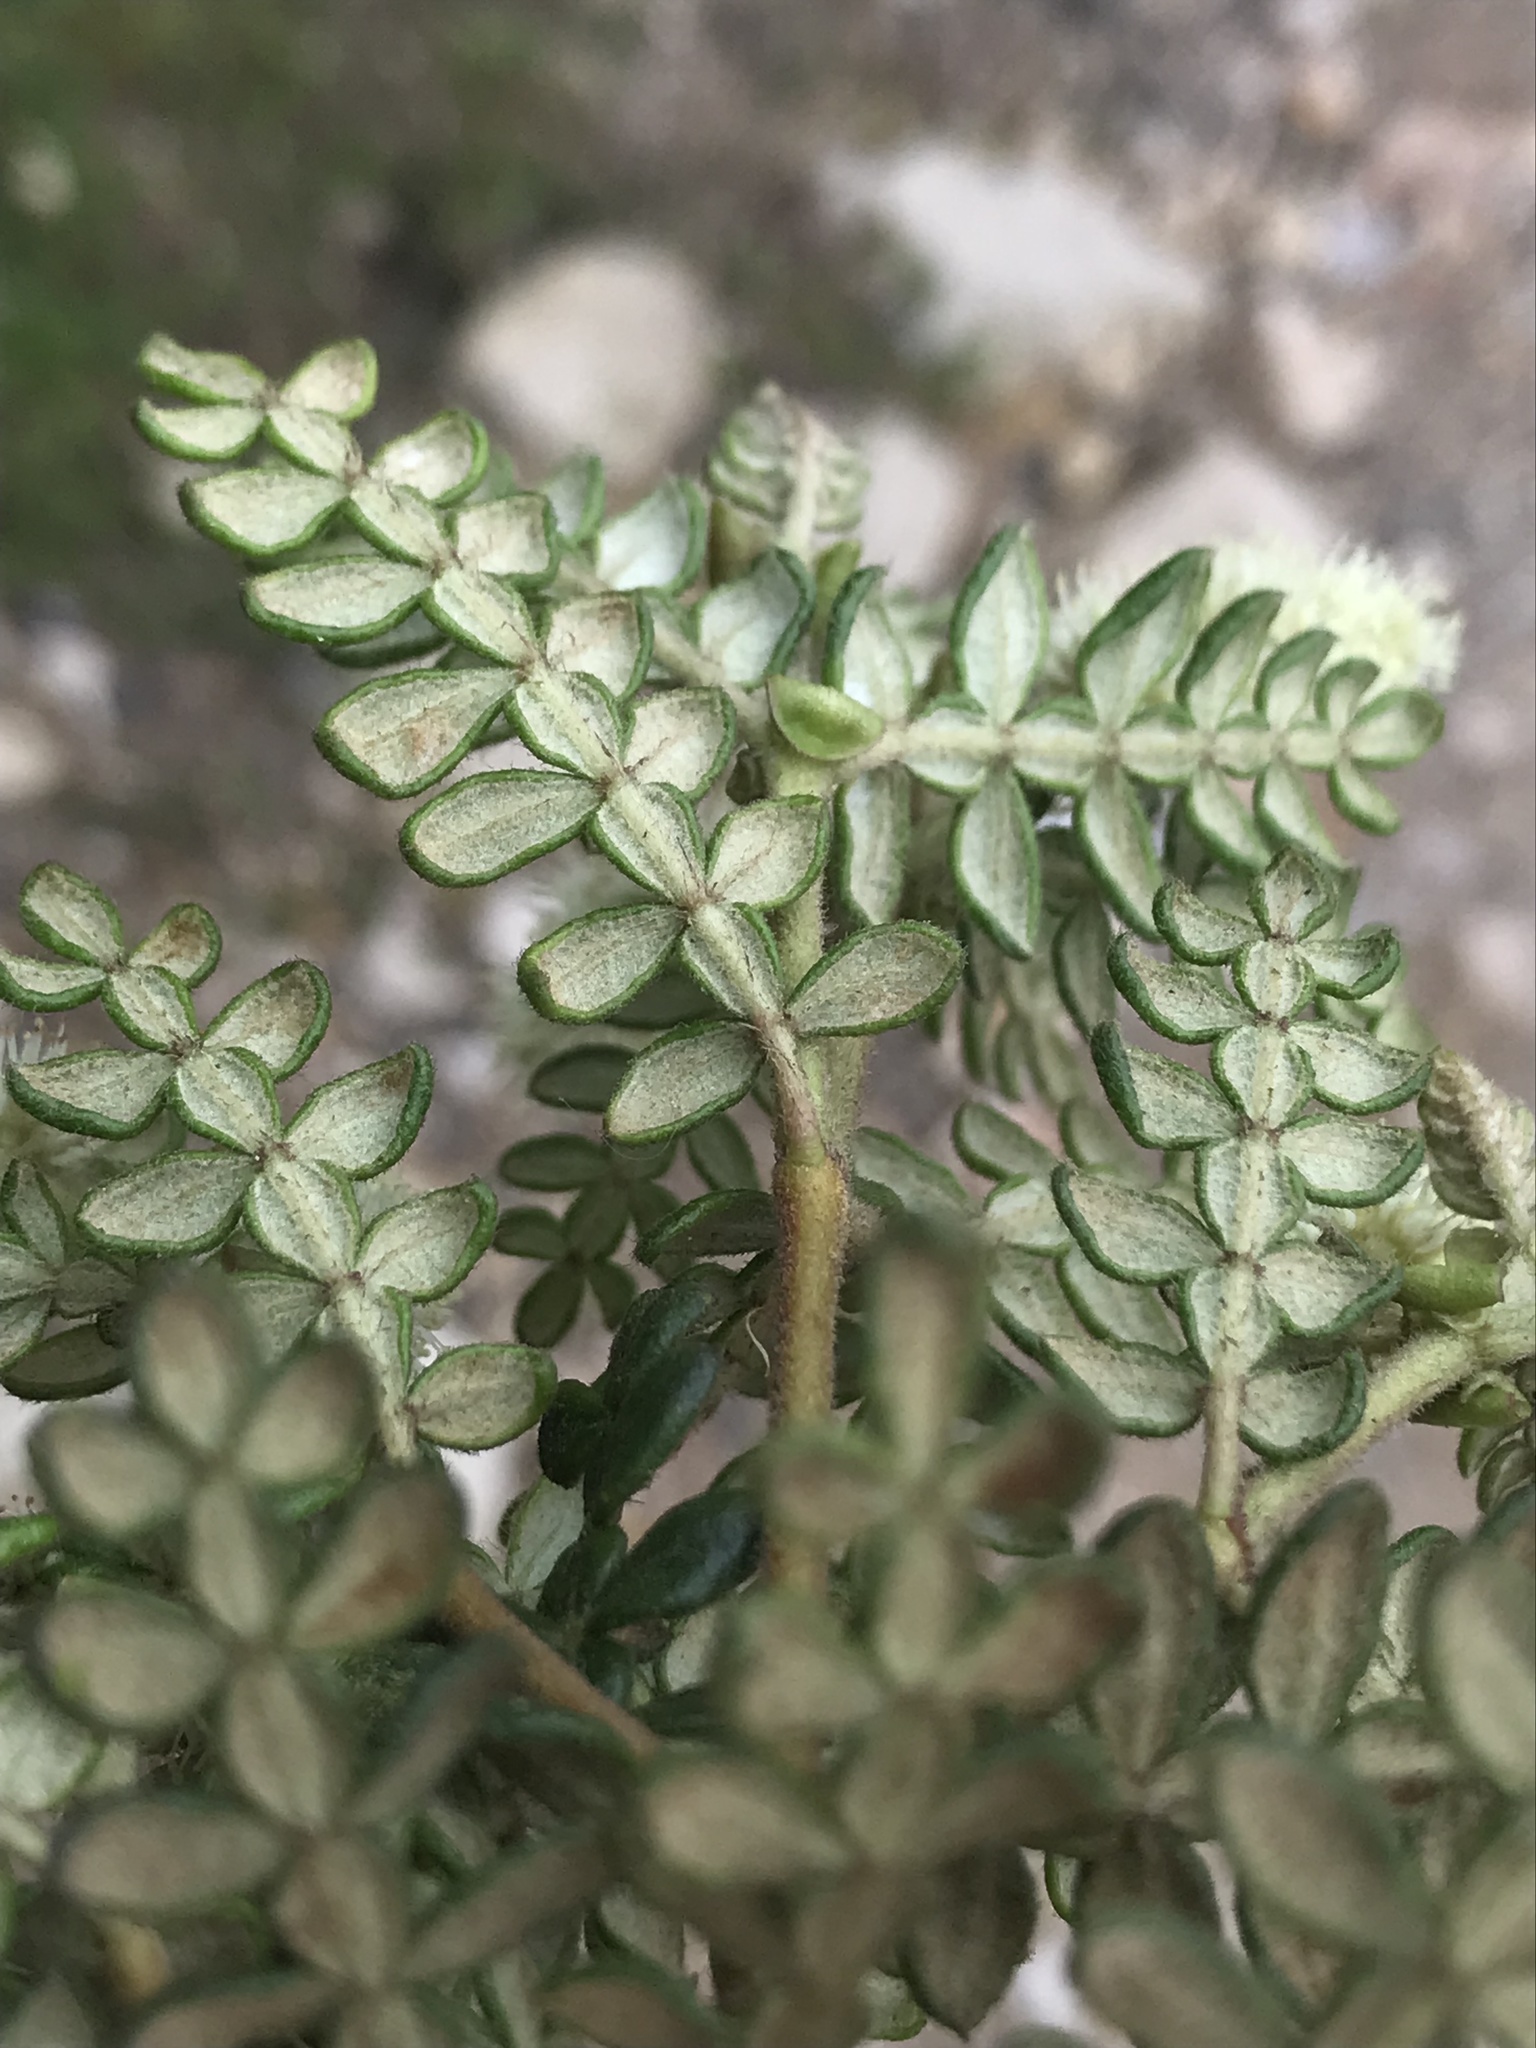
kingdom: Plantae
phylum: Tracheophyta
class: Magnoliopsida
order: Oxalidales
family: Cunoniaceae
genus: Weinmannia
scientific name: Weinmannia tomentosa
